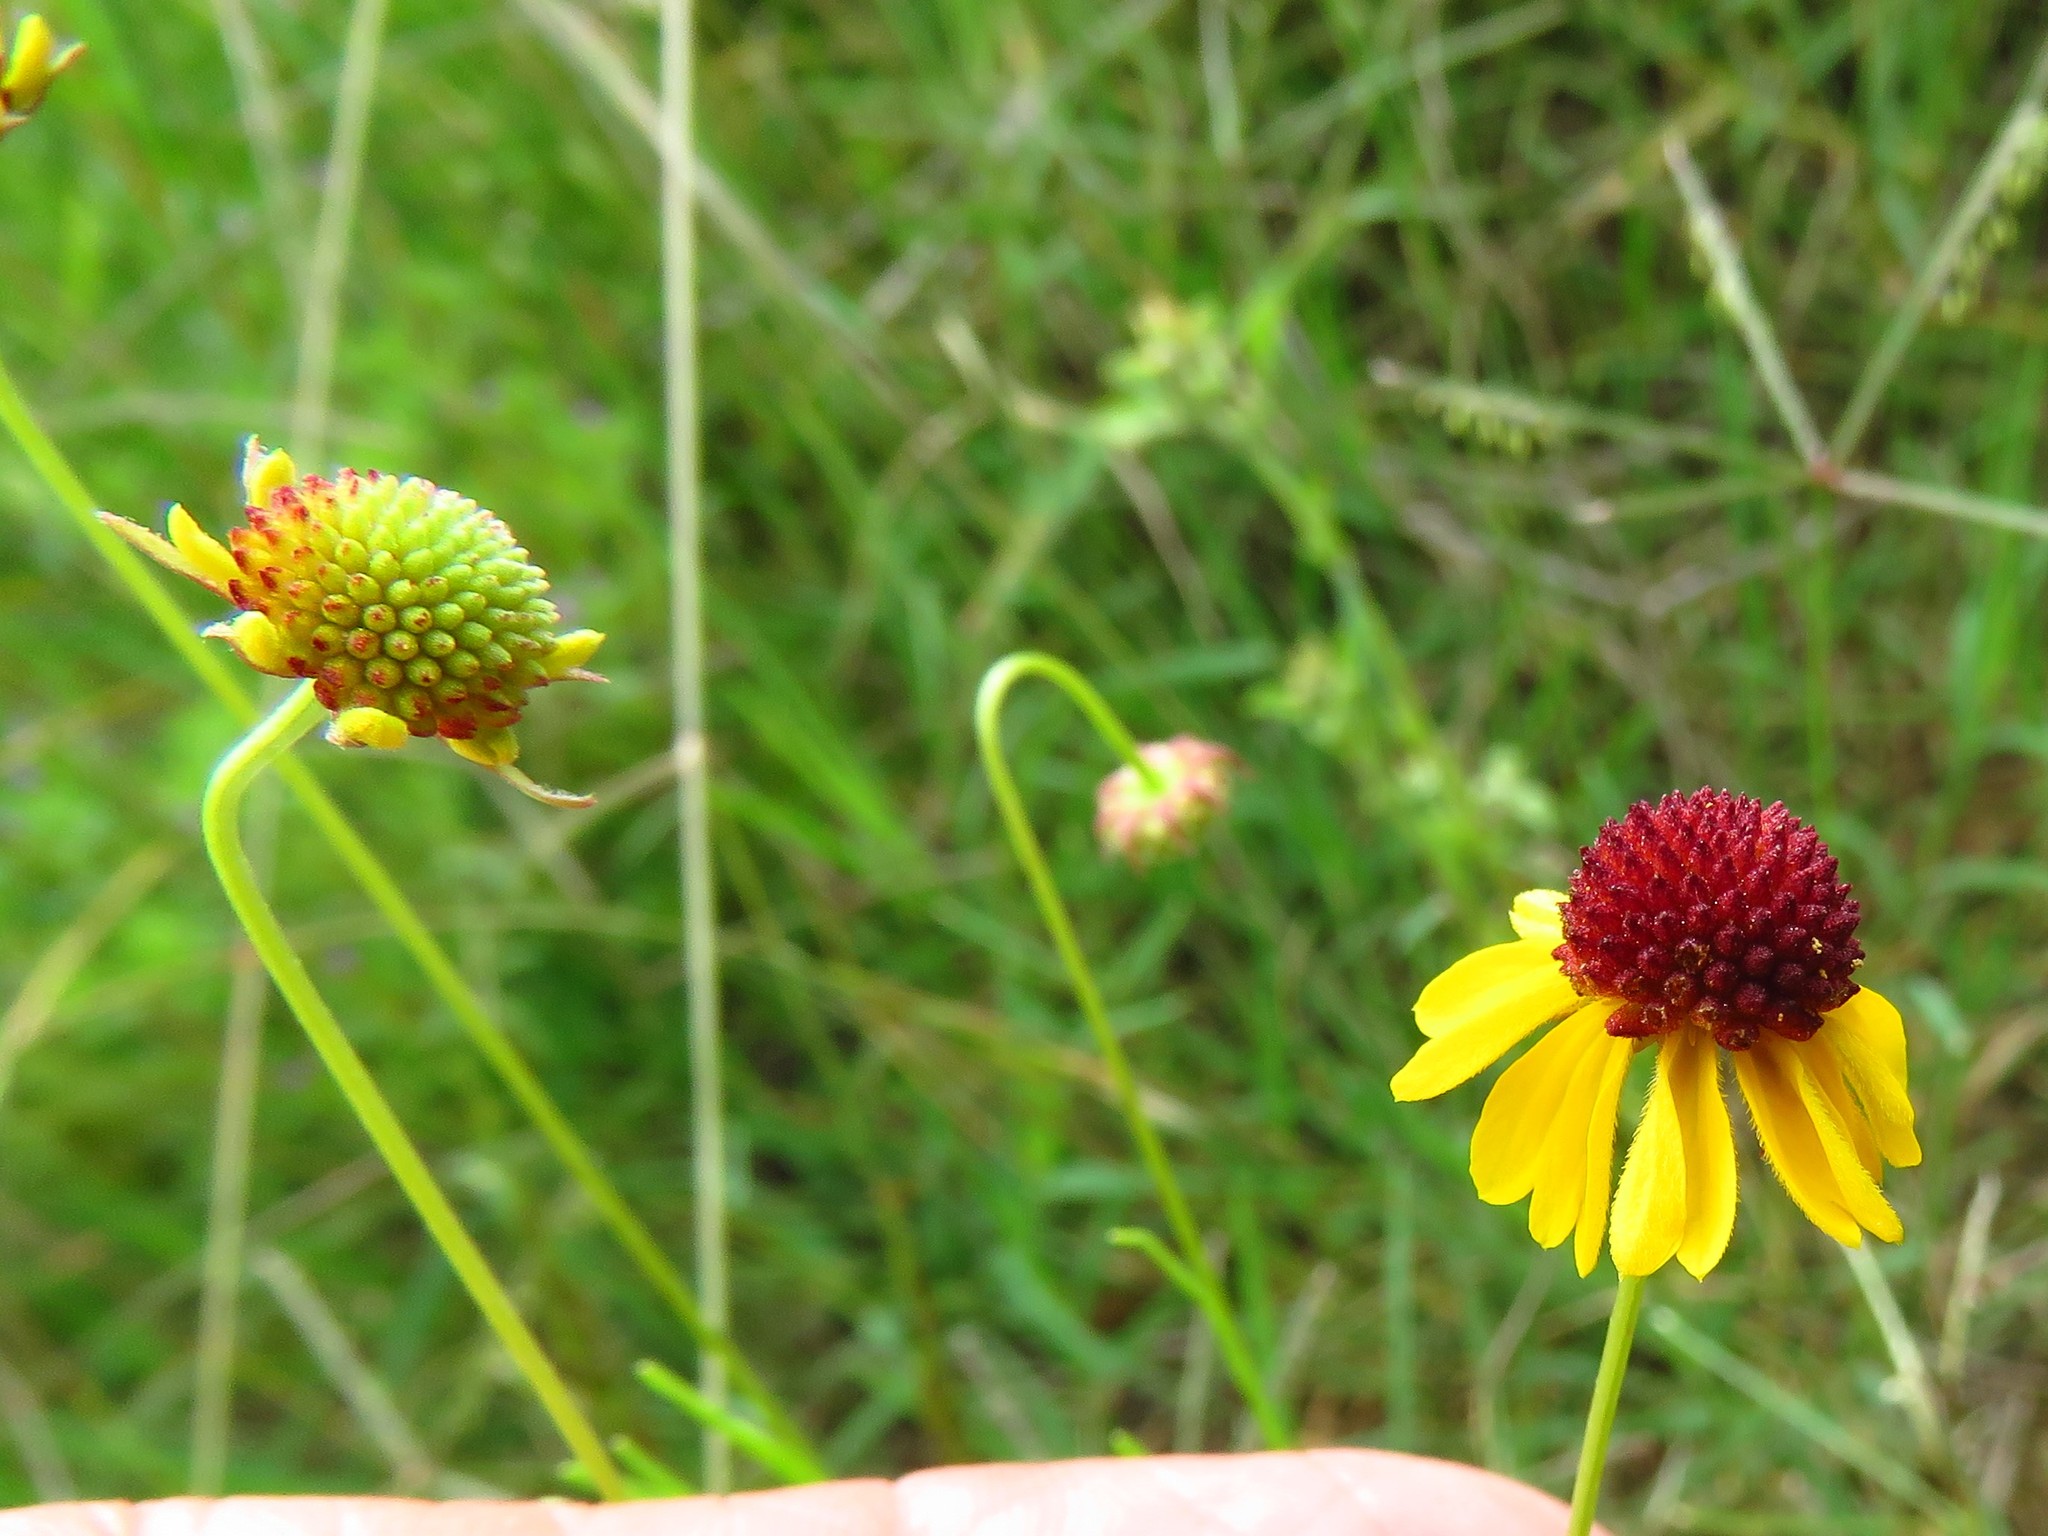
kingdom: Plantae
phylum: Tracheophyta
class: Magnoliopsida
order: Asterales
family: Asteraceae
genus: Helenium
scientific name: Helenium amarum
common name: Bitter sneezeweed
